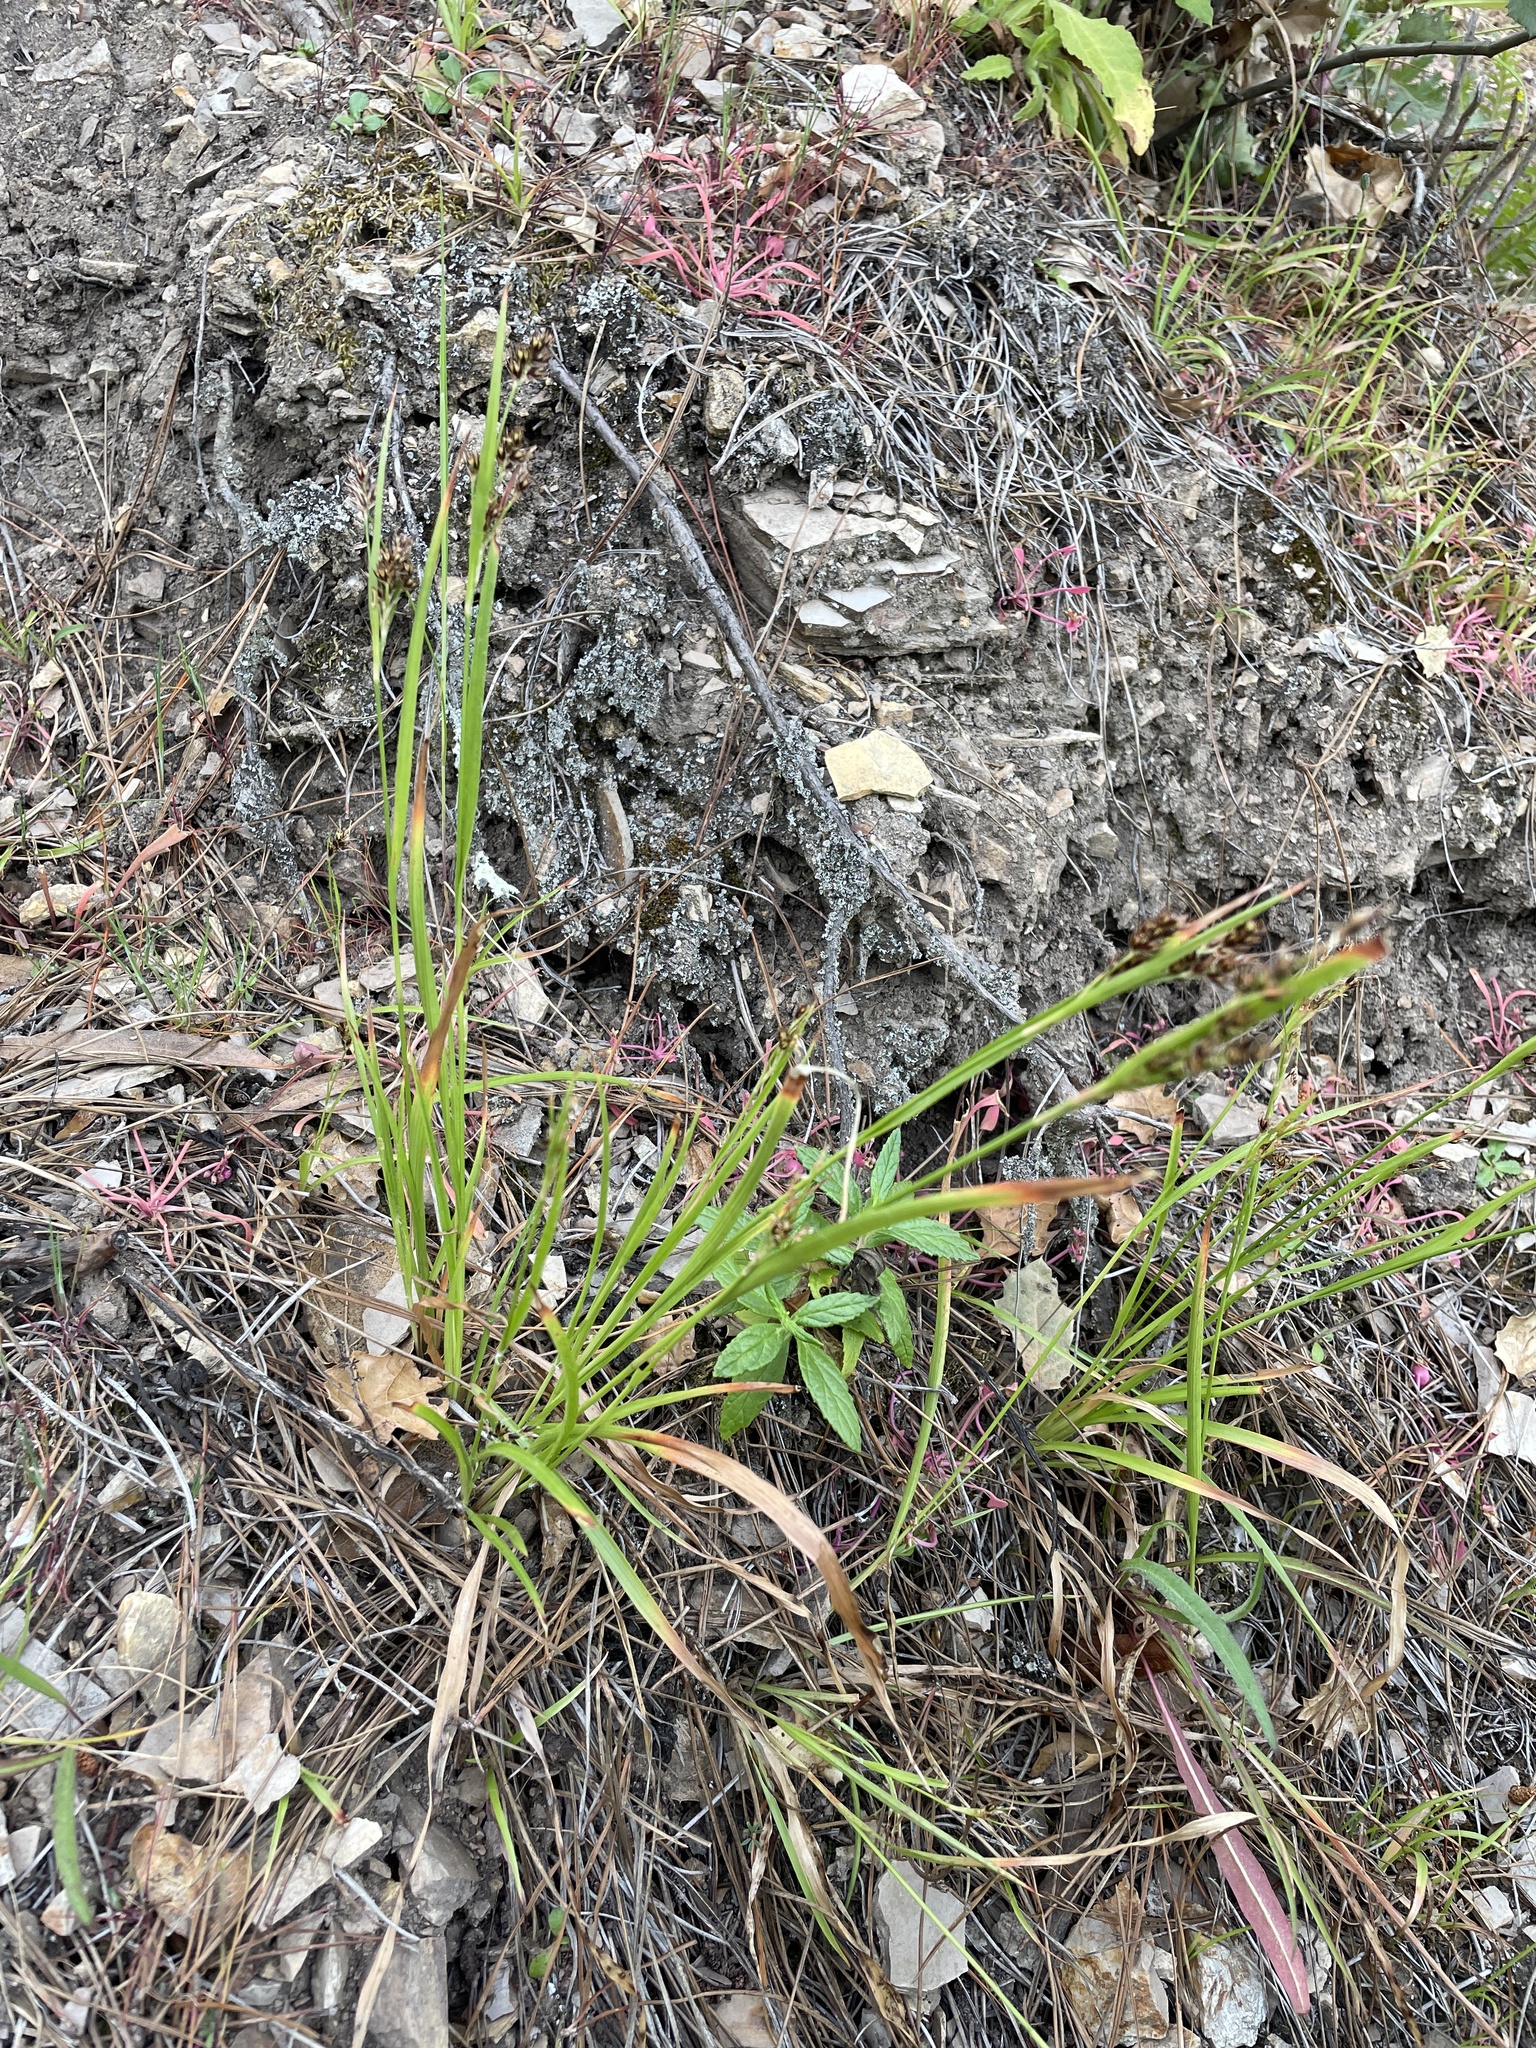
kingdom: Plantae
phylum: Tracheophyta
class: Liliopsida
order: Poales
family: Juncaceae
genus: Luzula
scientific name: Luzula macrantha
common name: Large-anthered woodrush
